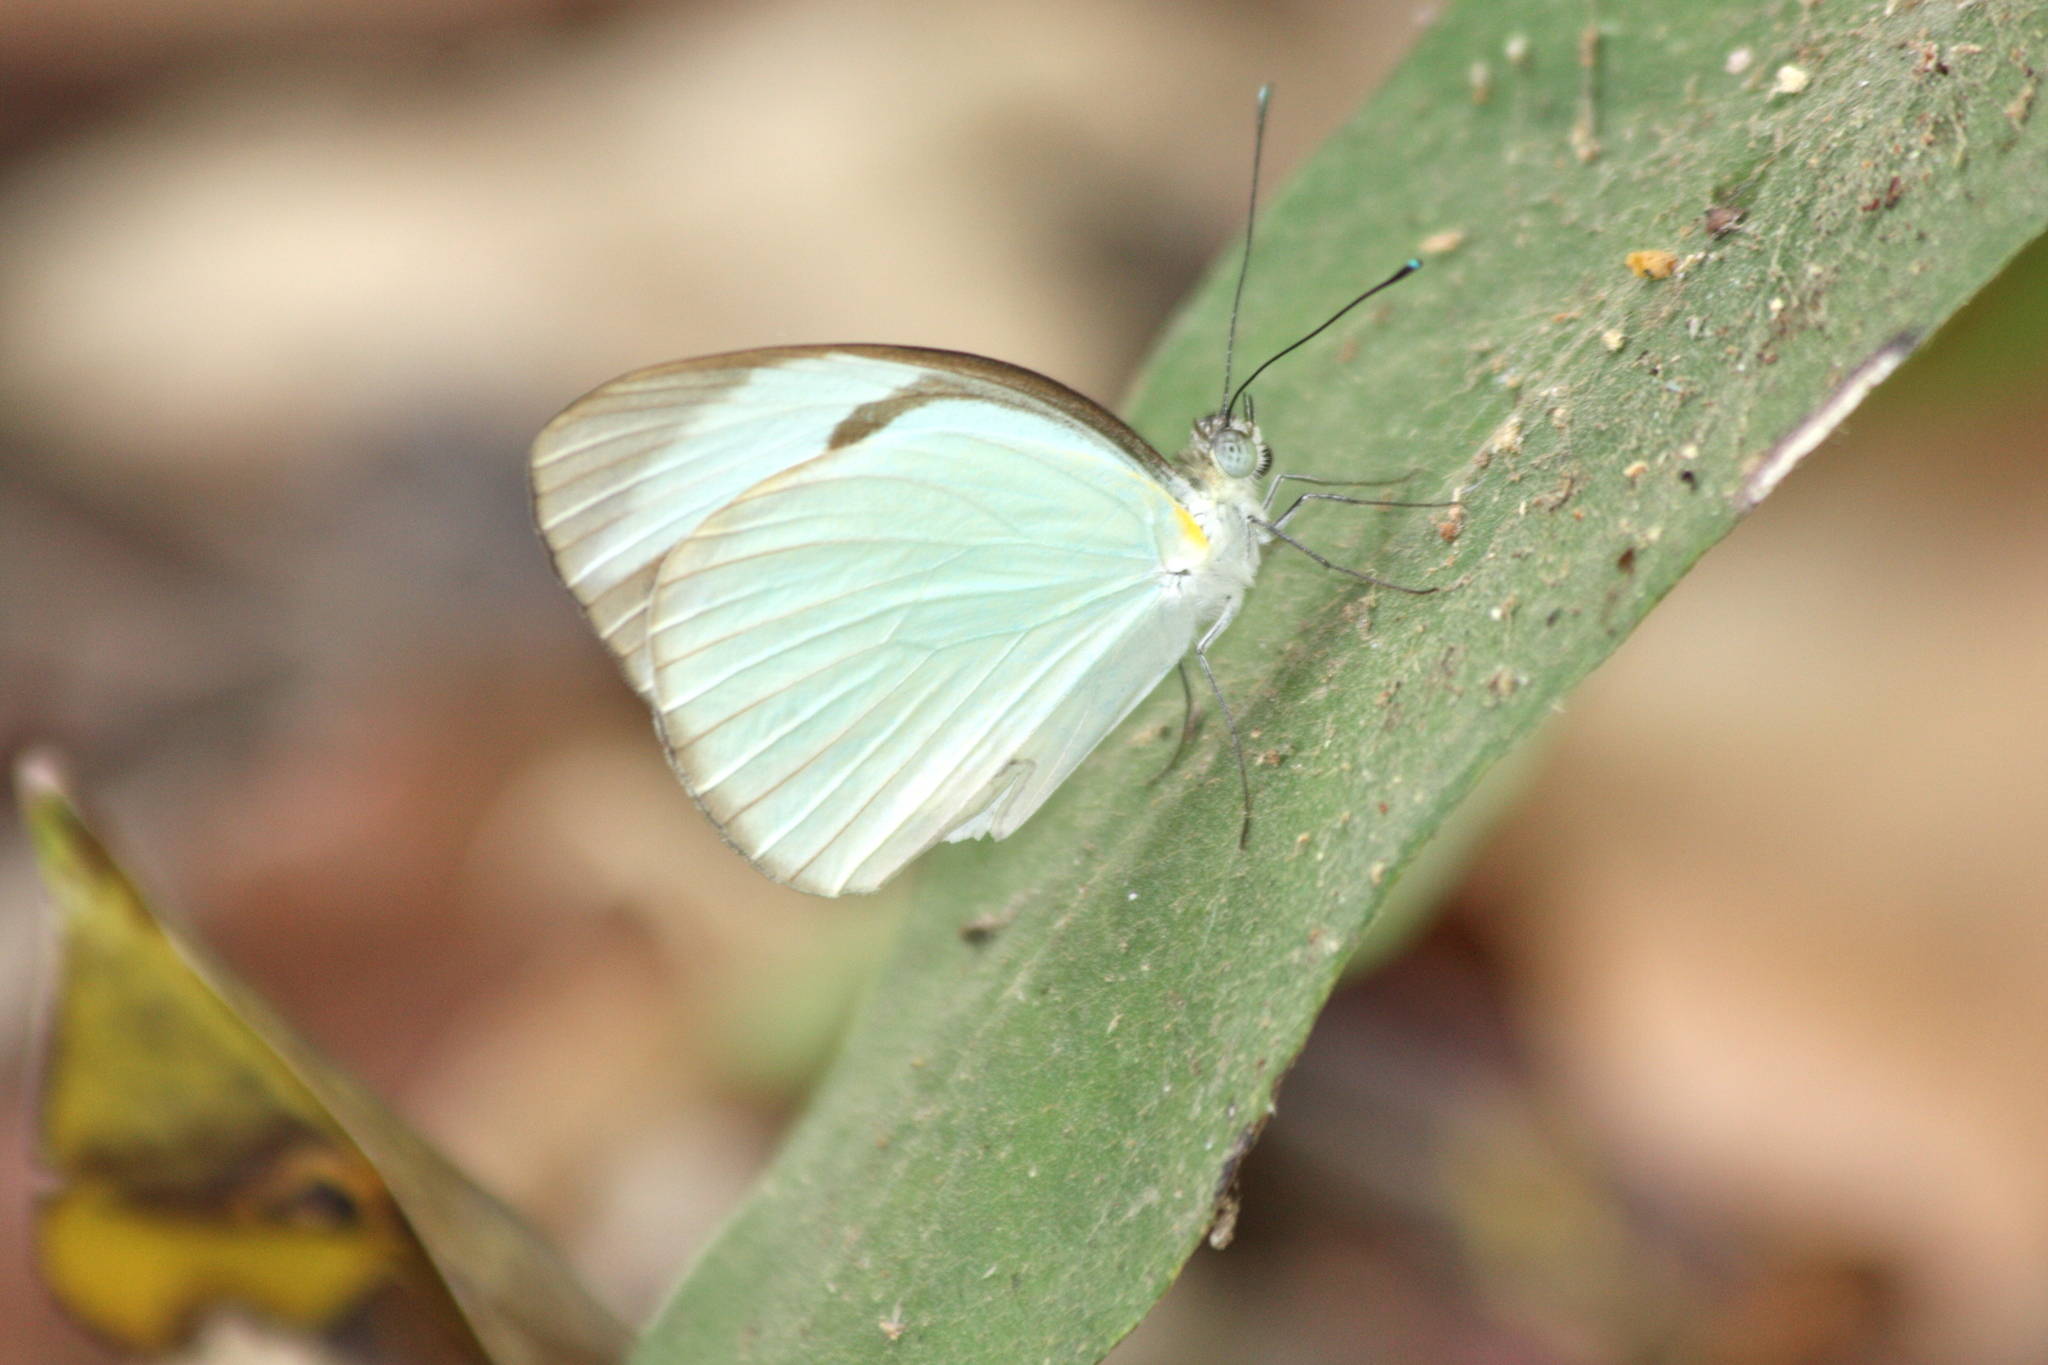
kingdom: Animalia
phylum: Arthropoda
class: Insecta
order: Lepidoptera
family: Pieridae
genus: Itaballia
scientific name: Itaballia demophile
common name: Cross-barred white
